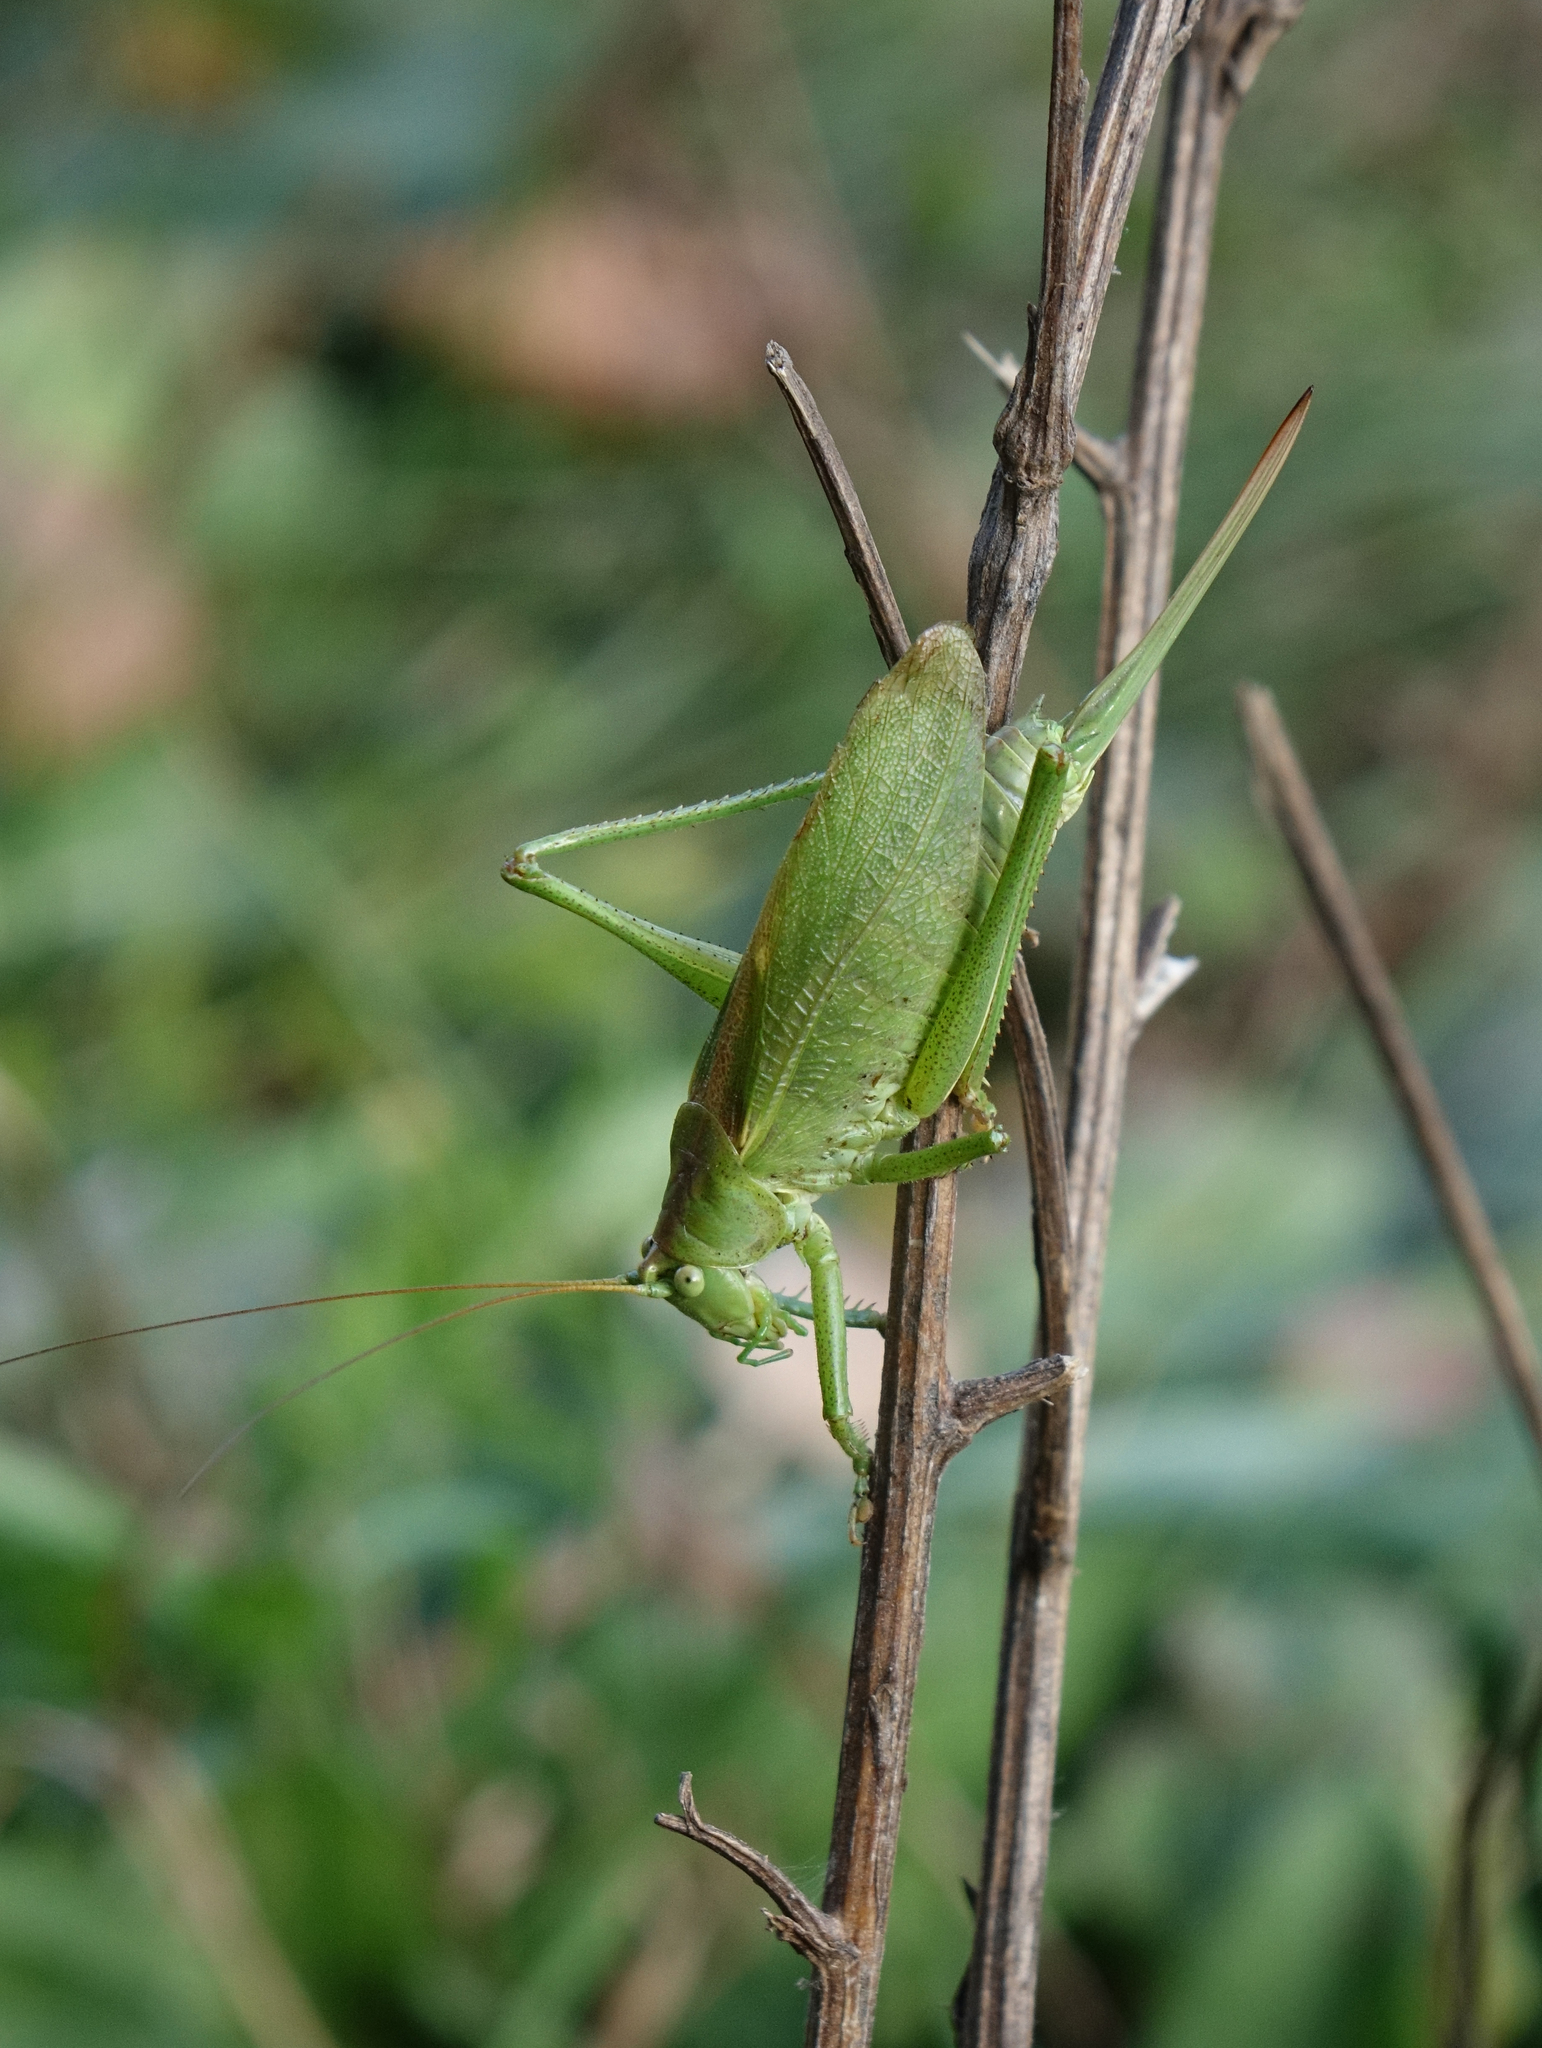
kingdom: Animalia
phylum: Arthropoda
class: Insecta
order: Orthoptera
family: Tettigoniidae
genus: Tettigonia
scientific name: Tettigonia cantans
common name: Upland green bush-cricket
